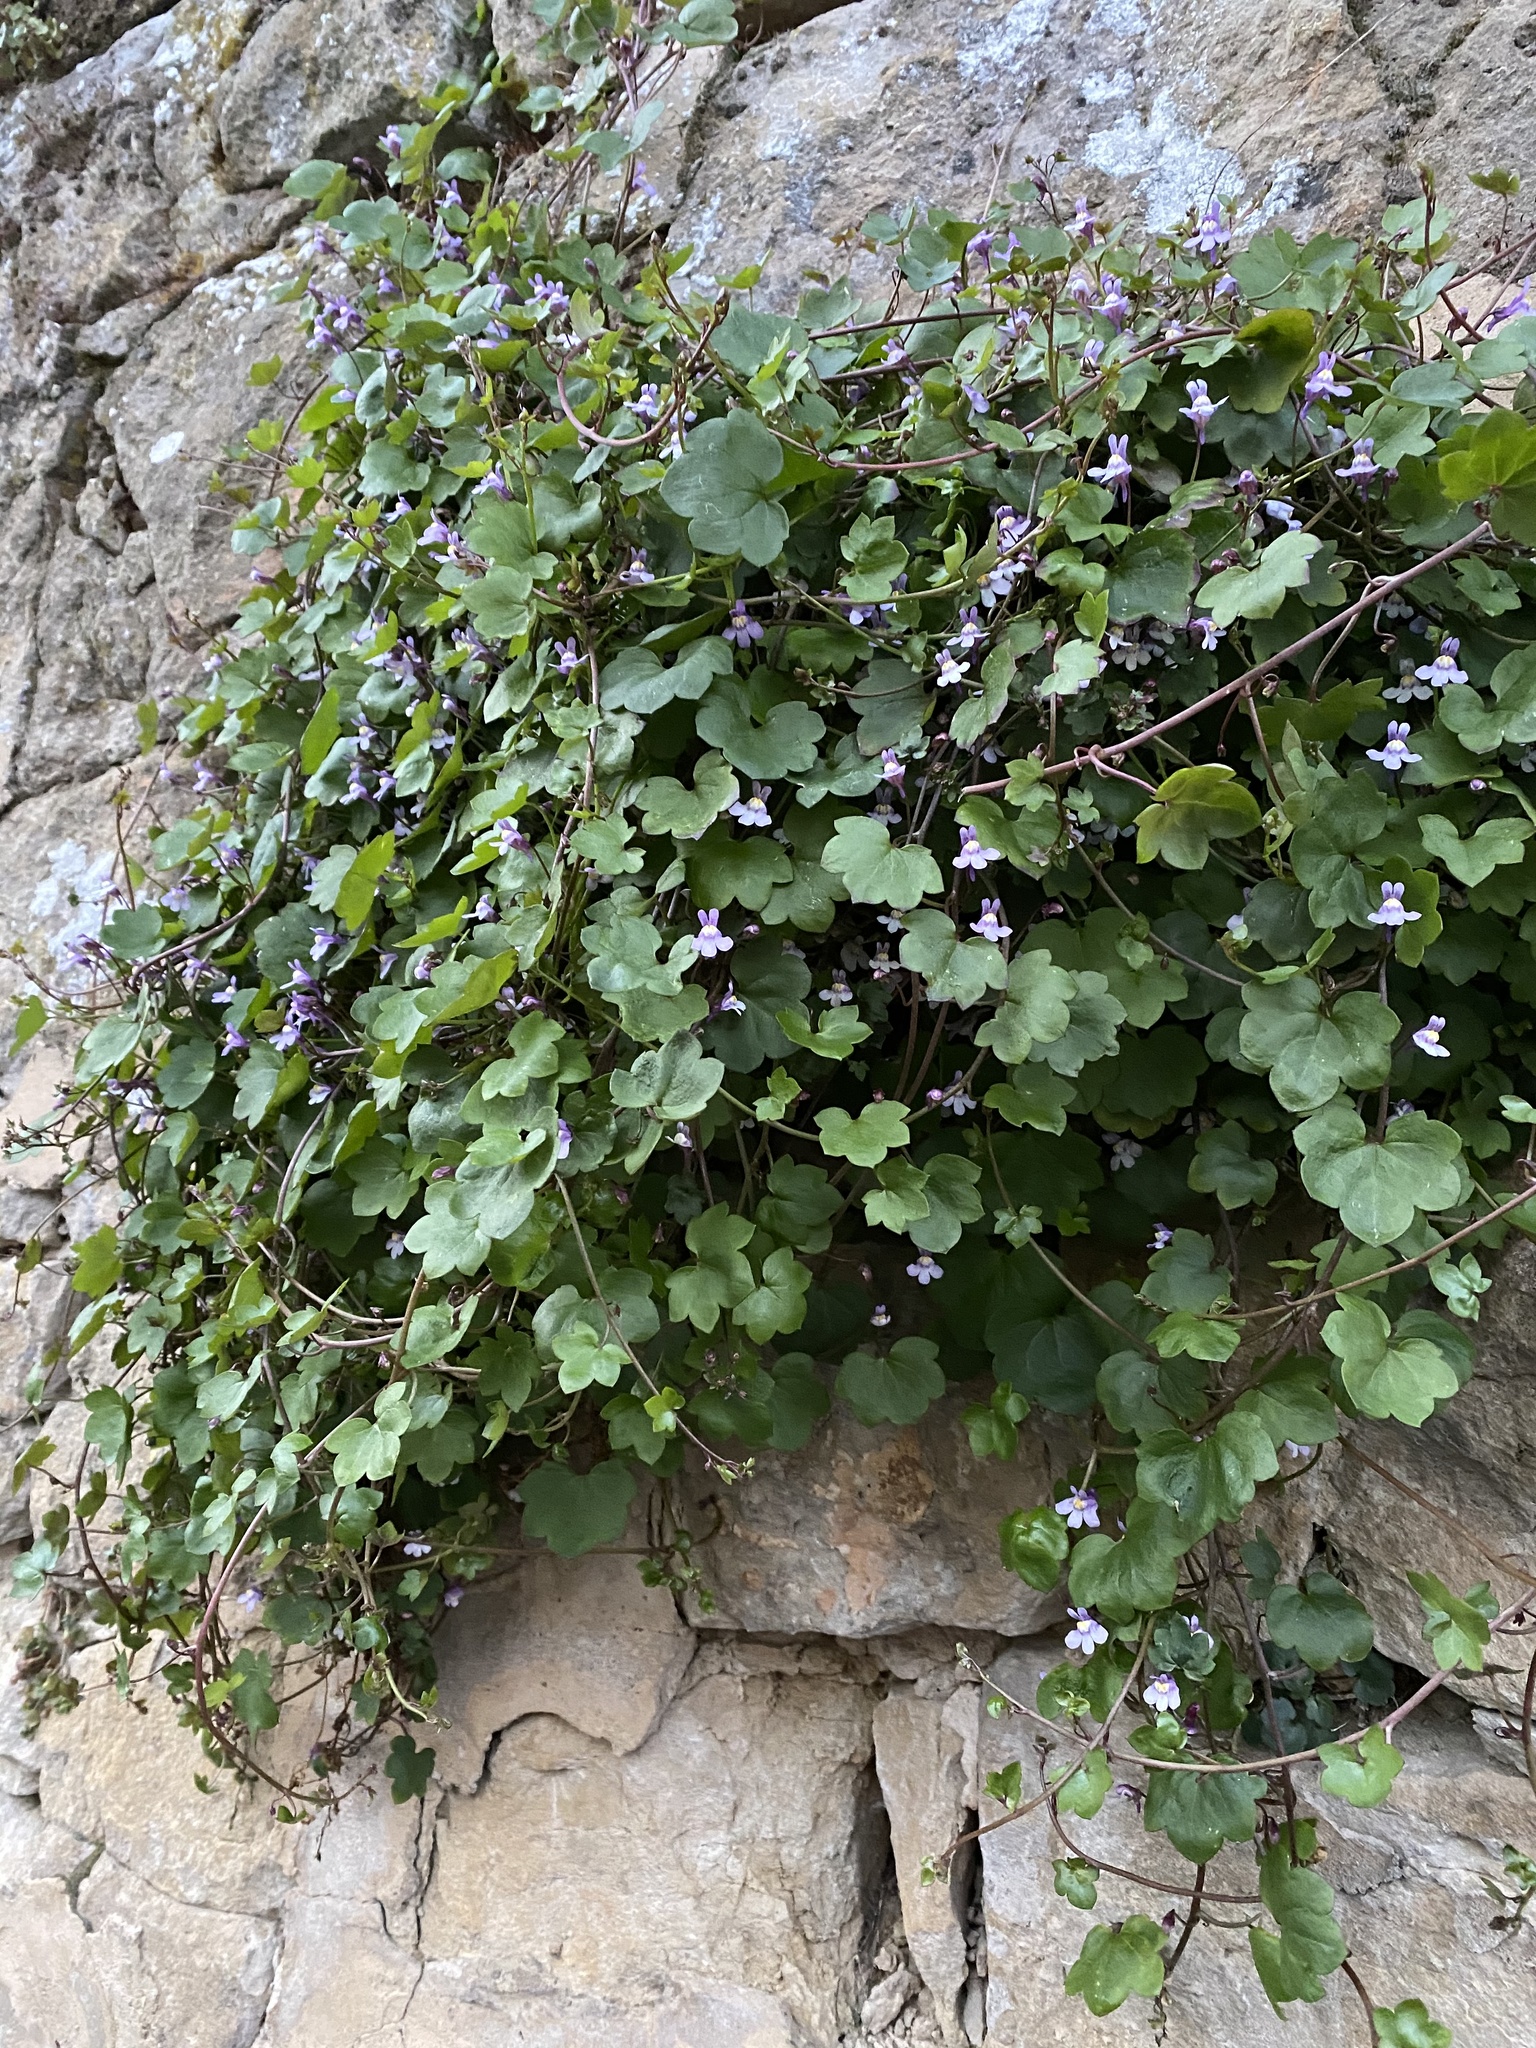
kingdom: Plantae
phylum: Tracheophyta
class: Magnoliopsida
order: Lamiales
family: Plantaginaceae
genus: Cymbalaria
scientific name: Cymbalaria muralis
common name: Ivy-leaved toadflax
